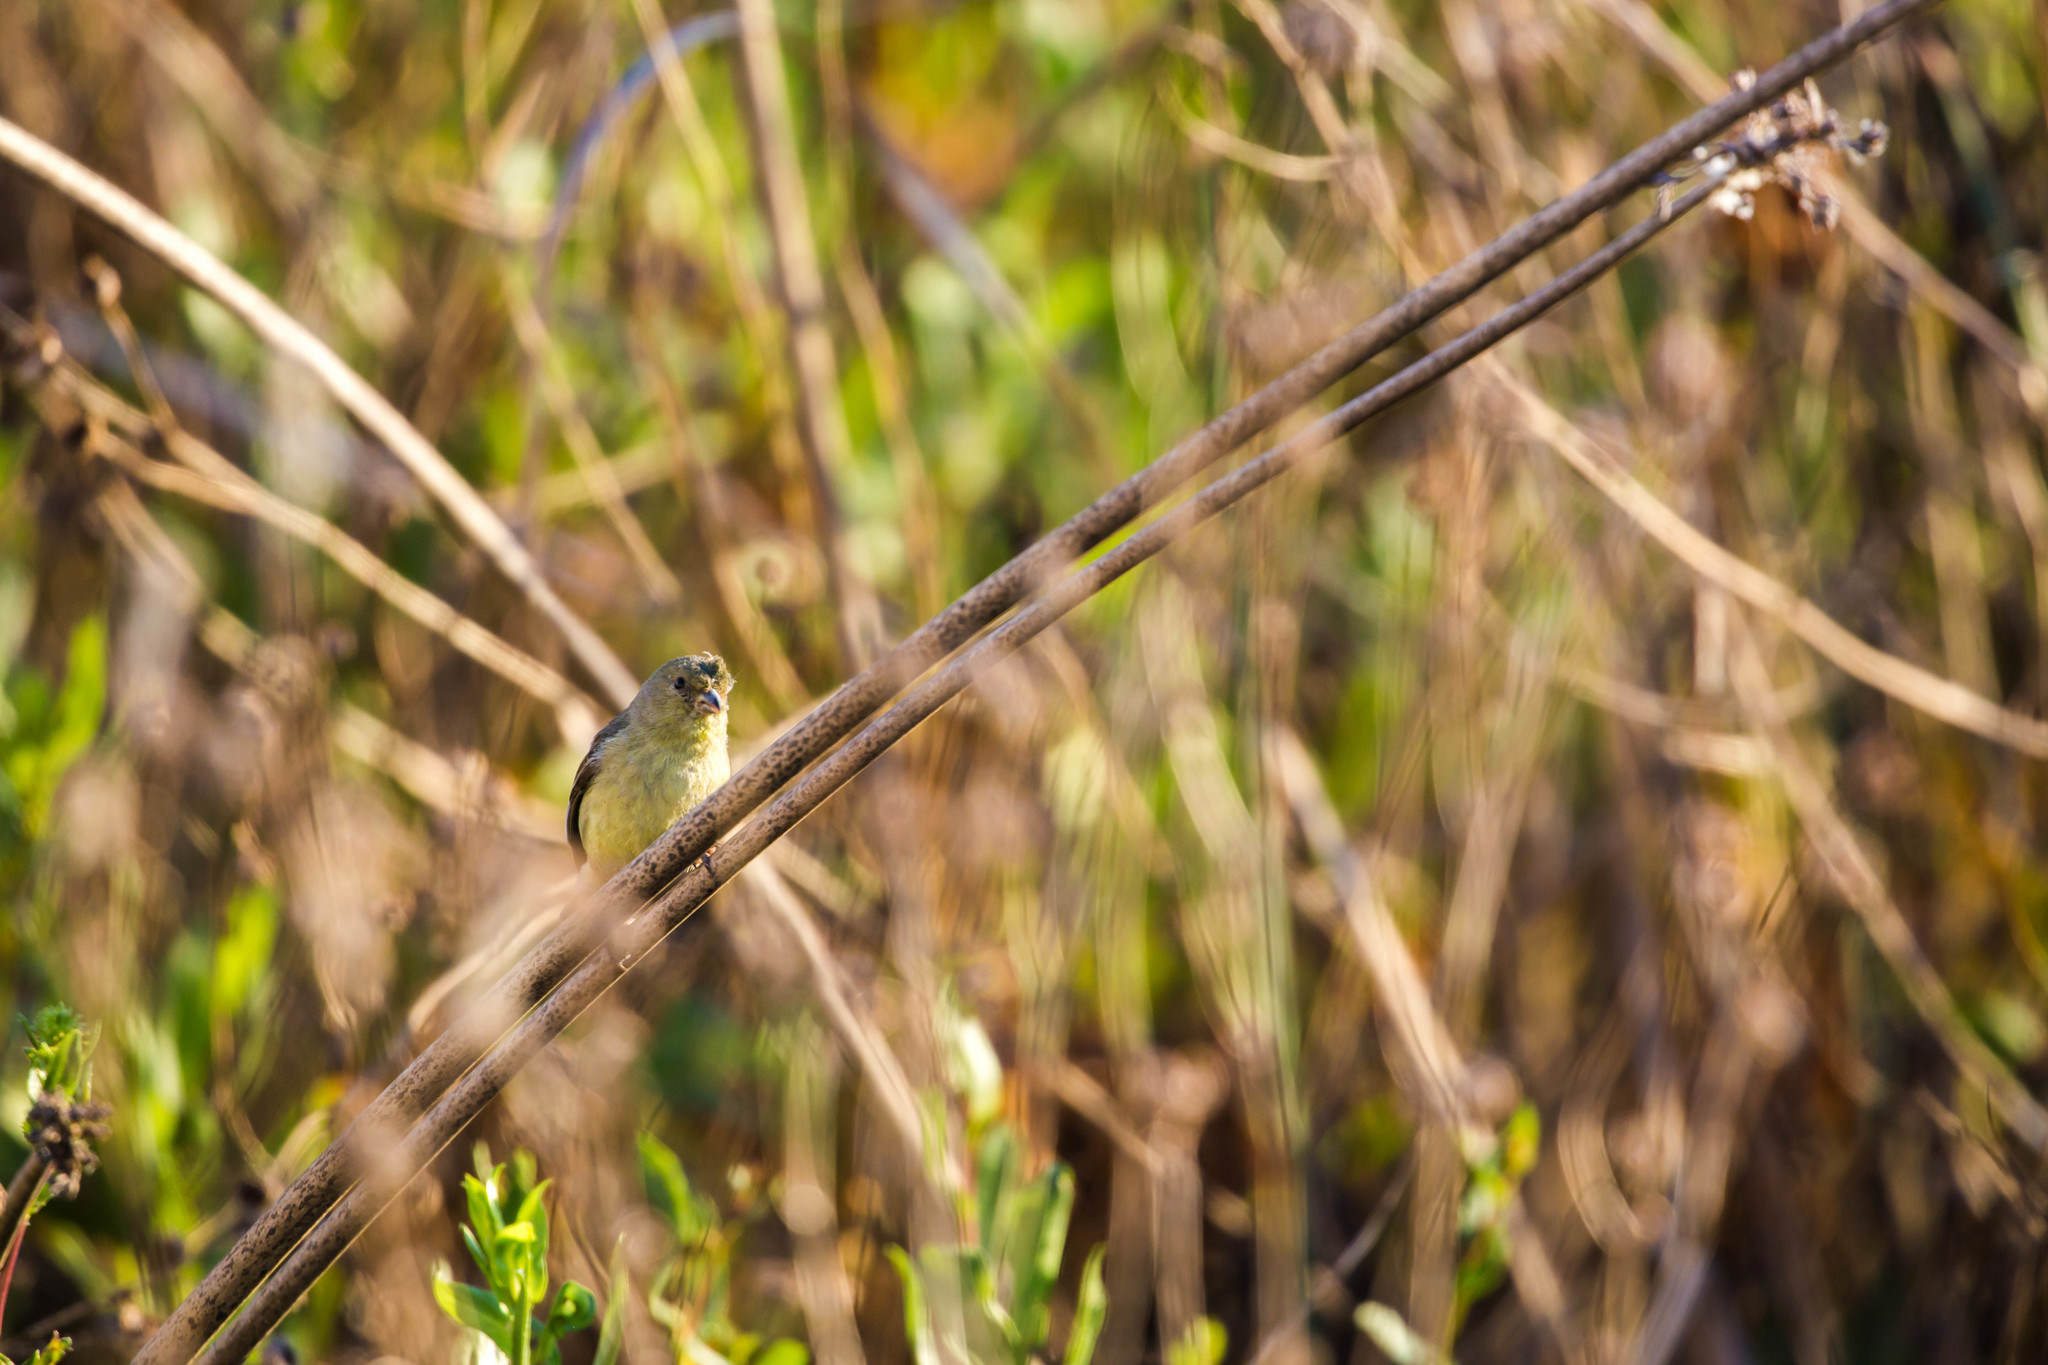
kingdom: Animalia
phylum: Chordata
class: Aves
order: Passeriformes
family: Fringillidae
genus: Spinus
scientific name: Spinus psaltria
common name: Lesser goldfinch
